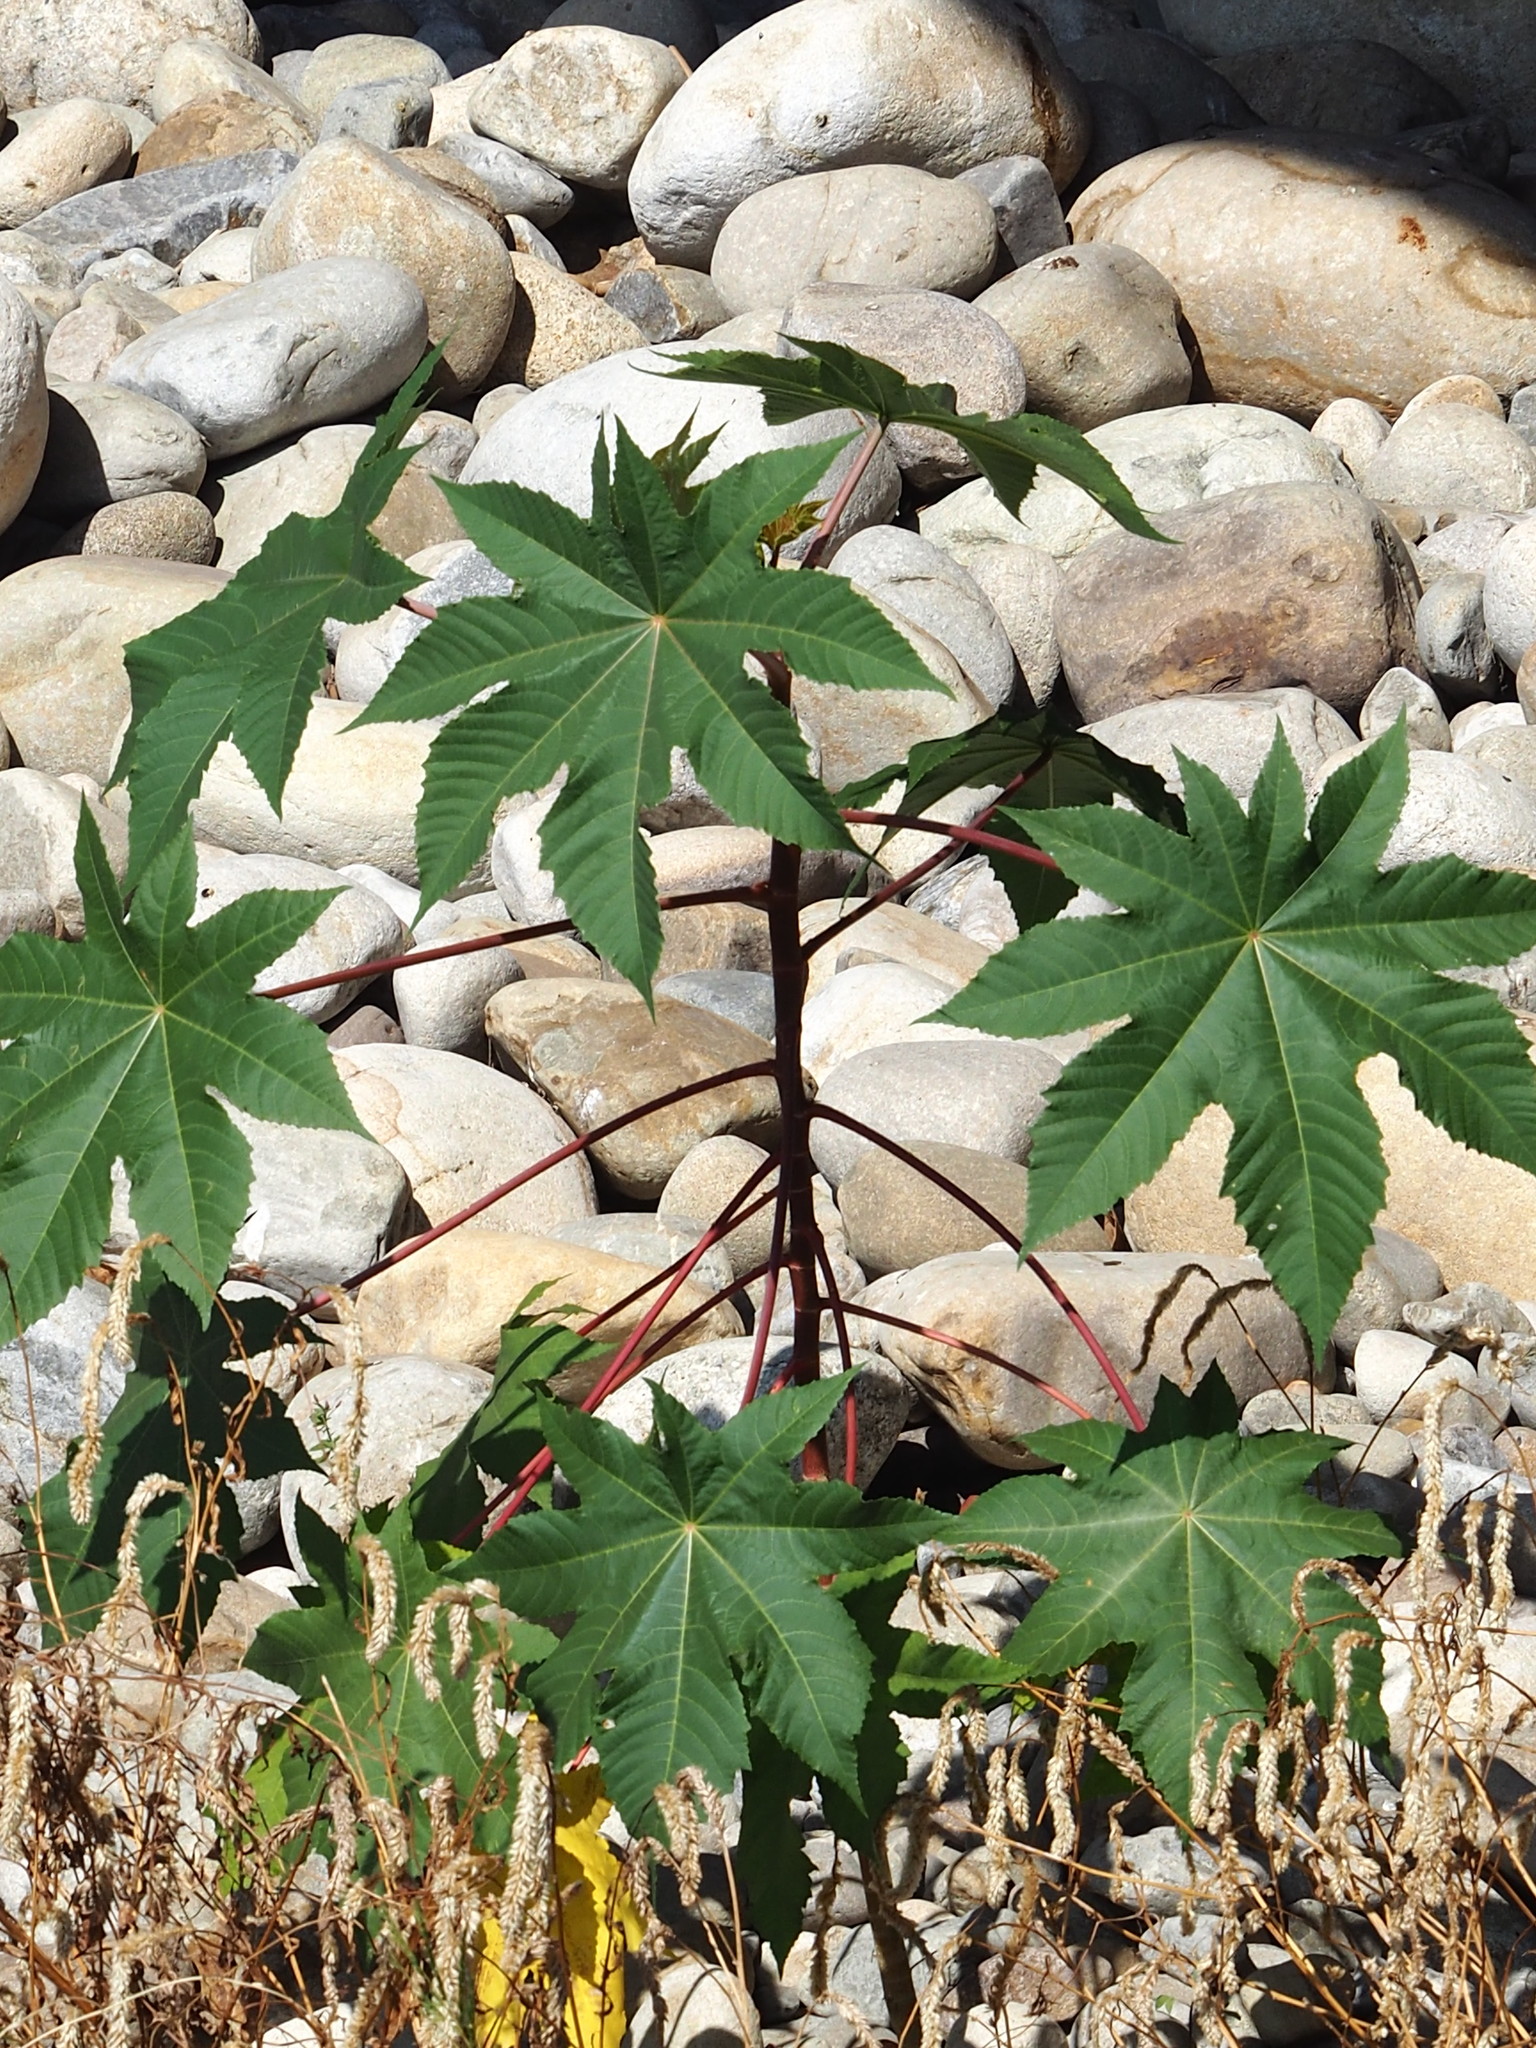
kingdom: Plantae
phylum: Tracheophyta
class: Magnoliopsida
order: Malpighiales
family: Euphorbiaceae
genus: Ricinus
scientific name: Ricinus communis
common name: Castor-oil-plant
